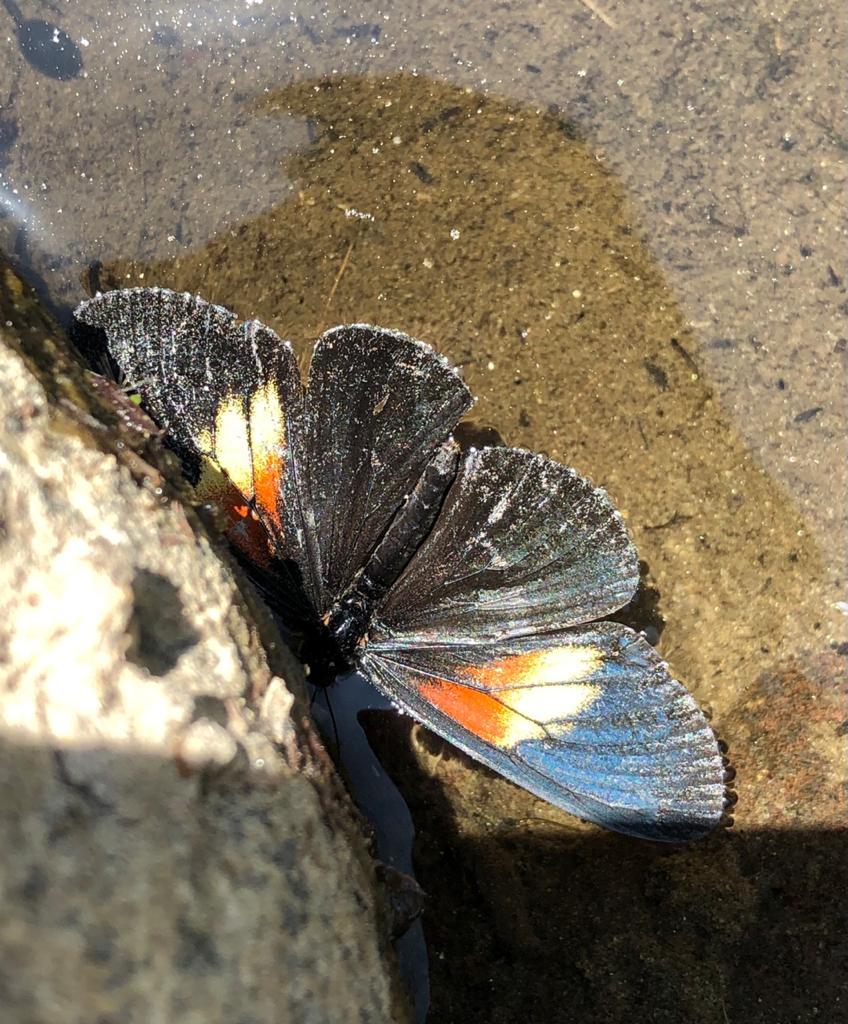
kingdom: Animalia
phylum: Arthropoda
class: Insecta
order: Lepidoptera
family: Nymphalidae
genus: Acraea
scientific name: Acraea Altinote ozomene
